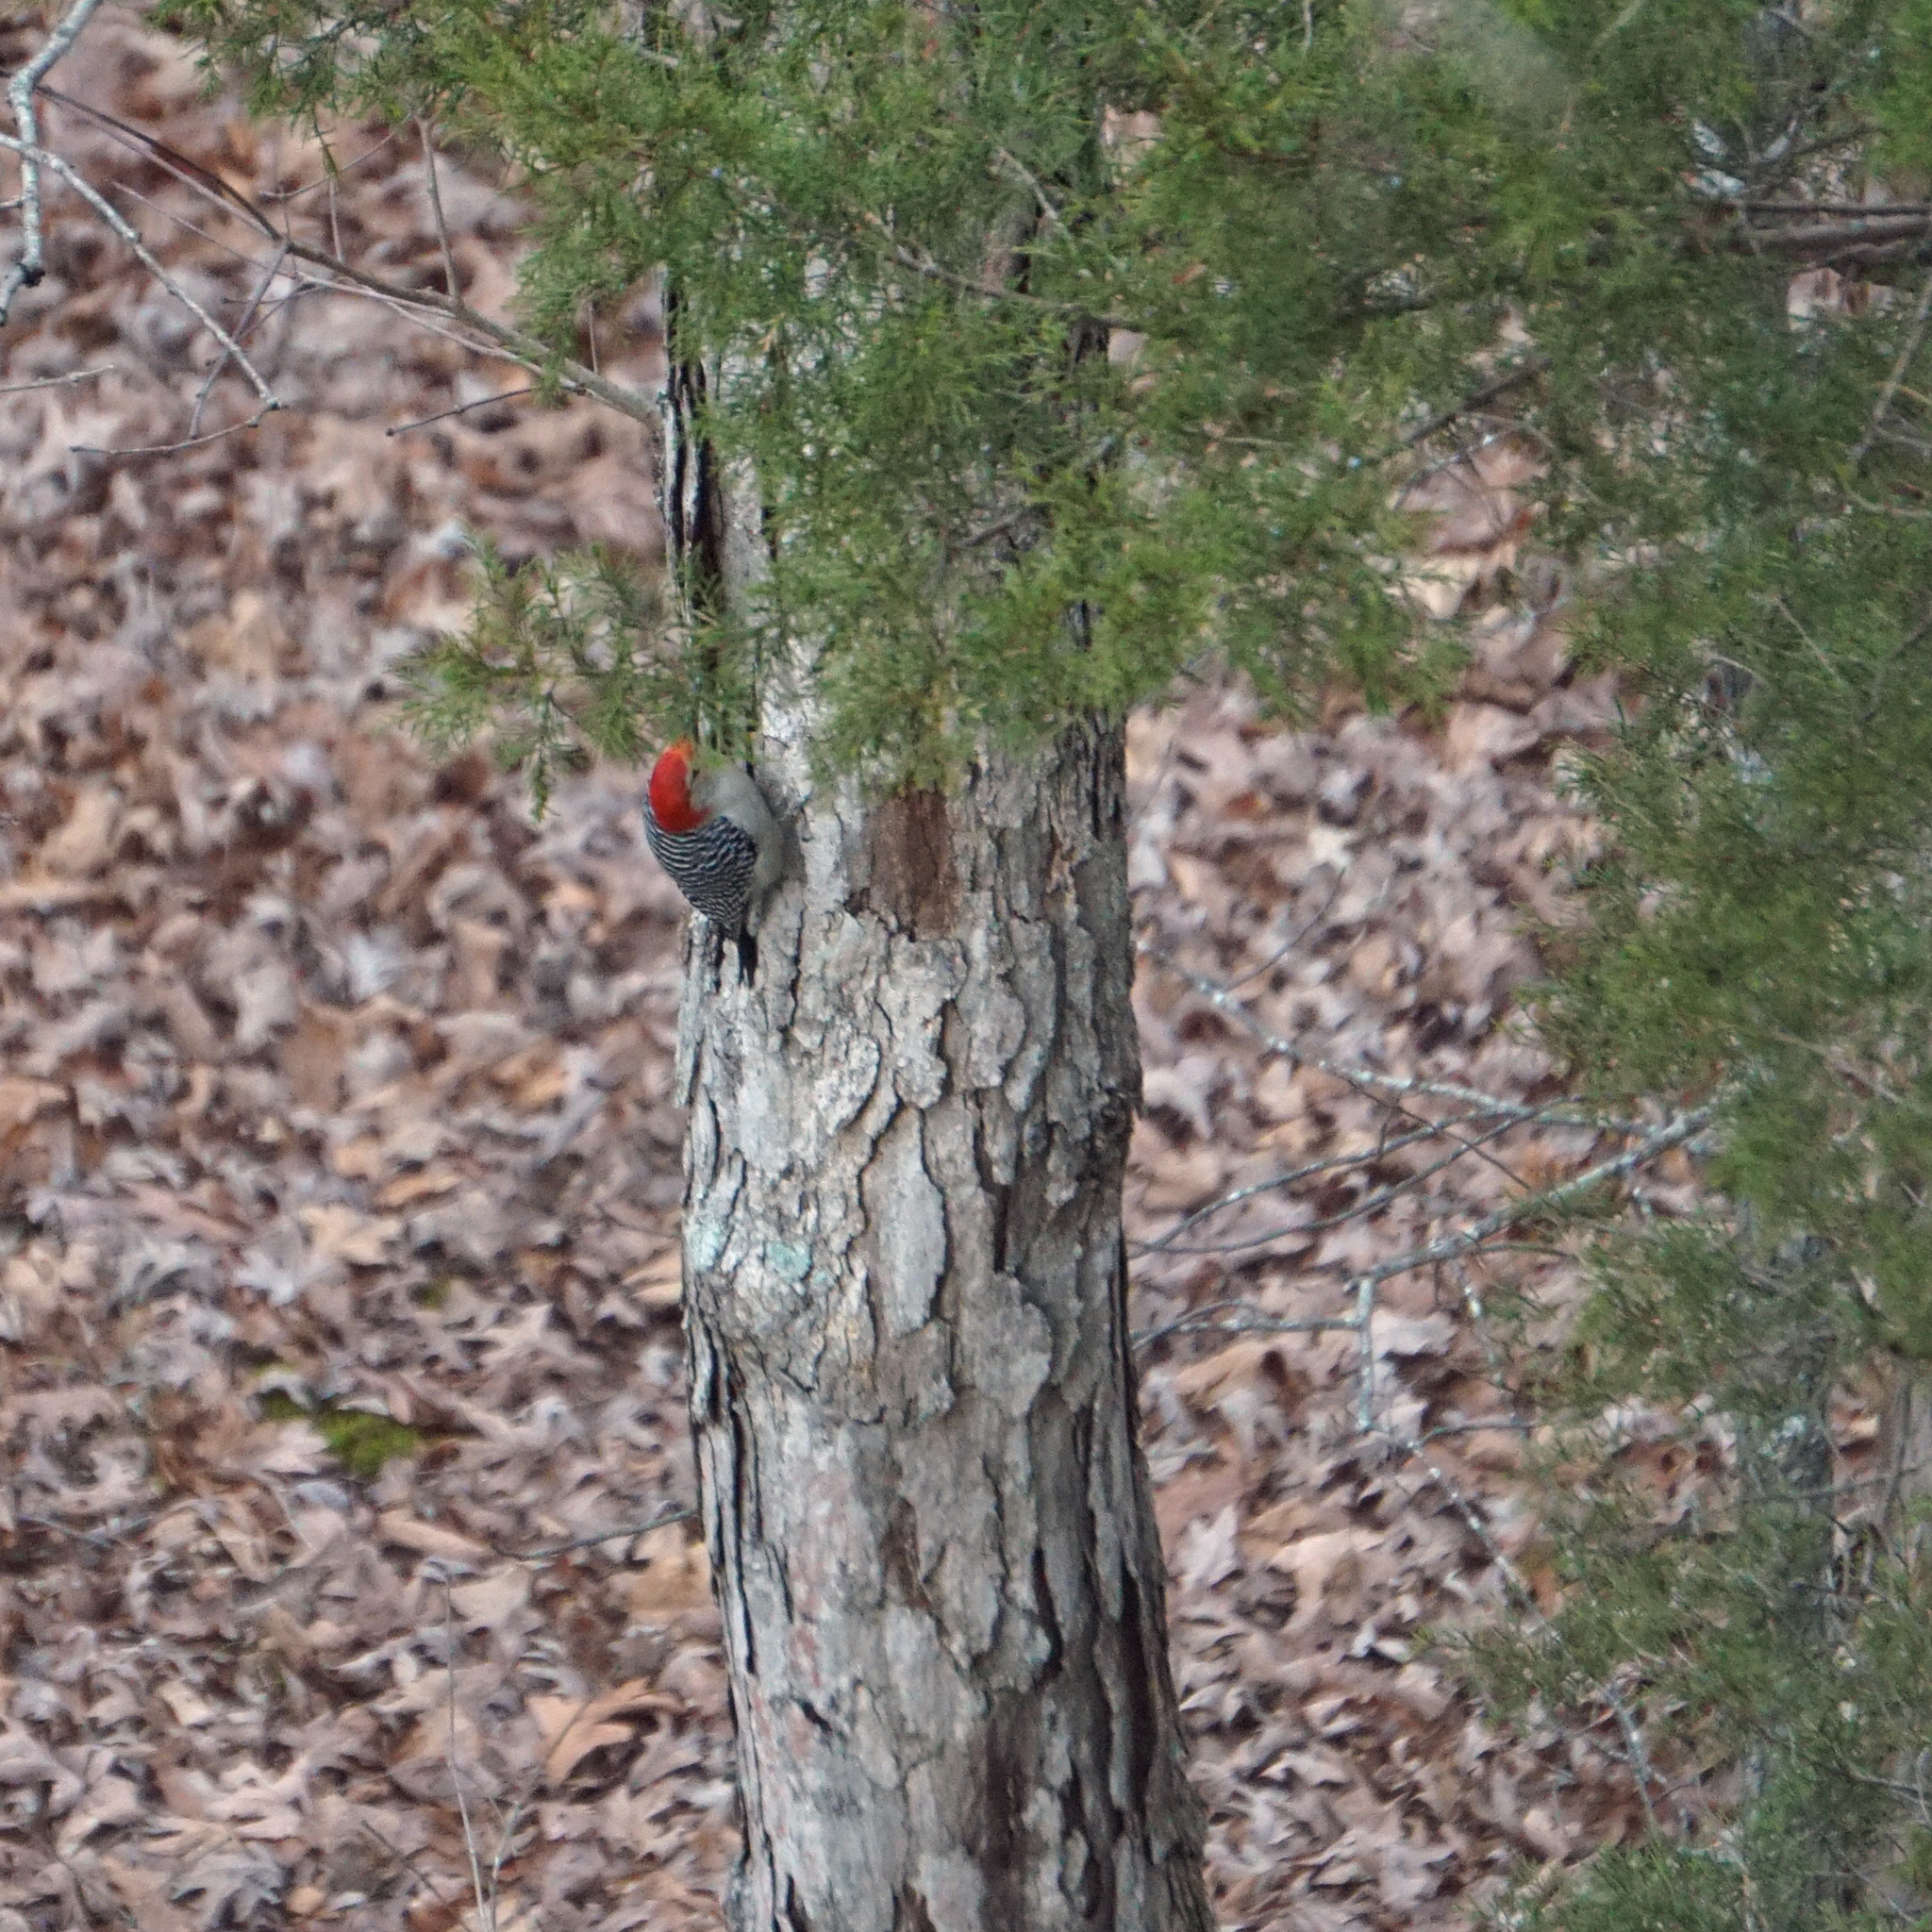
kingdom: Animalia
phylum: Chordata
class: Aves
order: Piciformes
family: Picidae
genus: Melanerpes
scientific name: Melanerpes carolinus
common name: Red-bellied woodpecker
